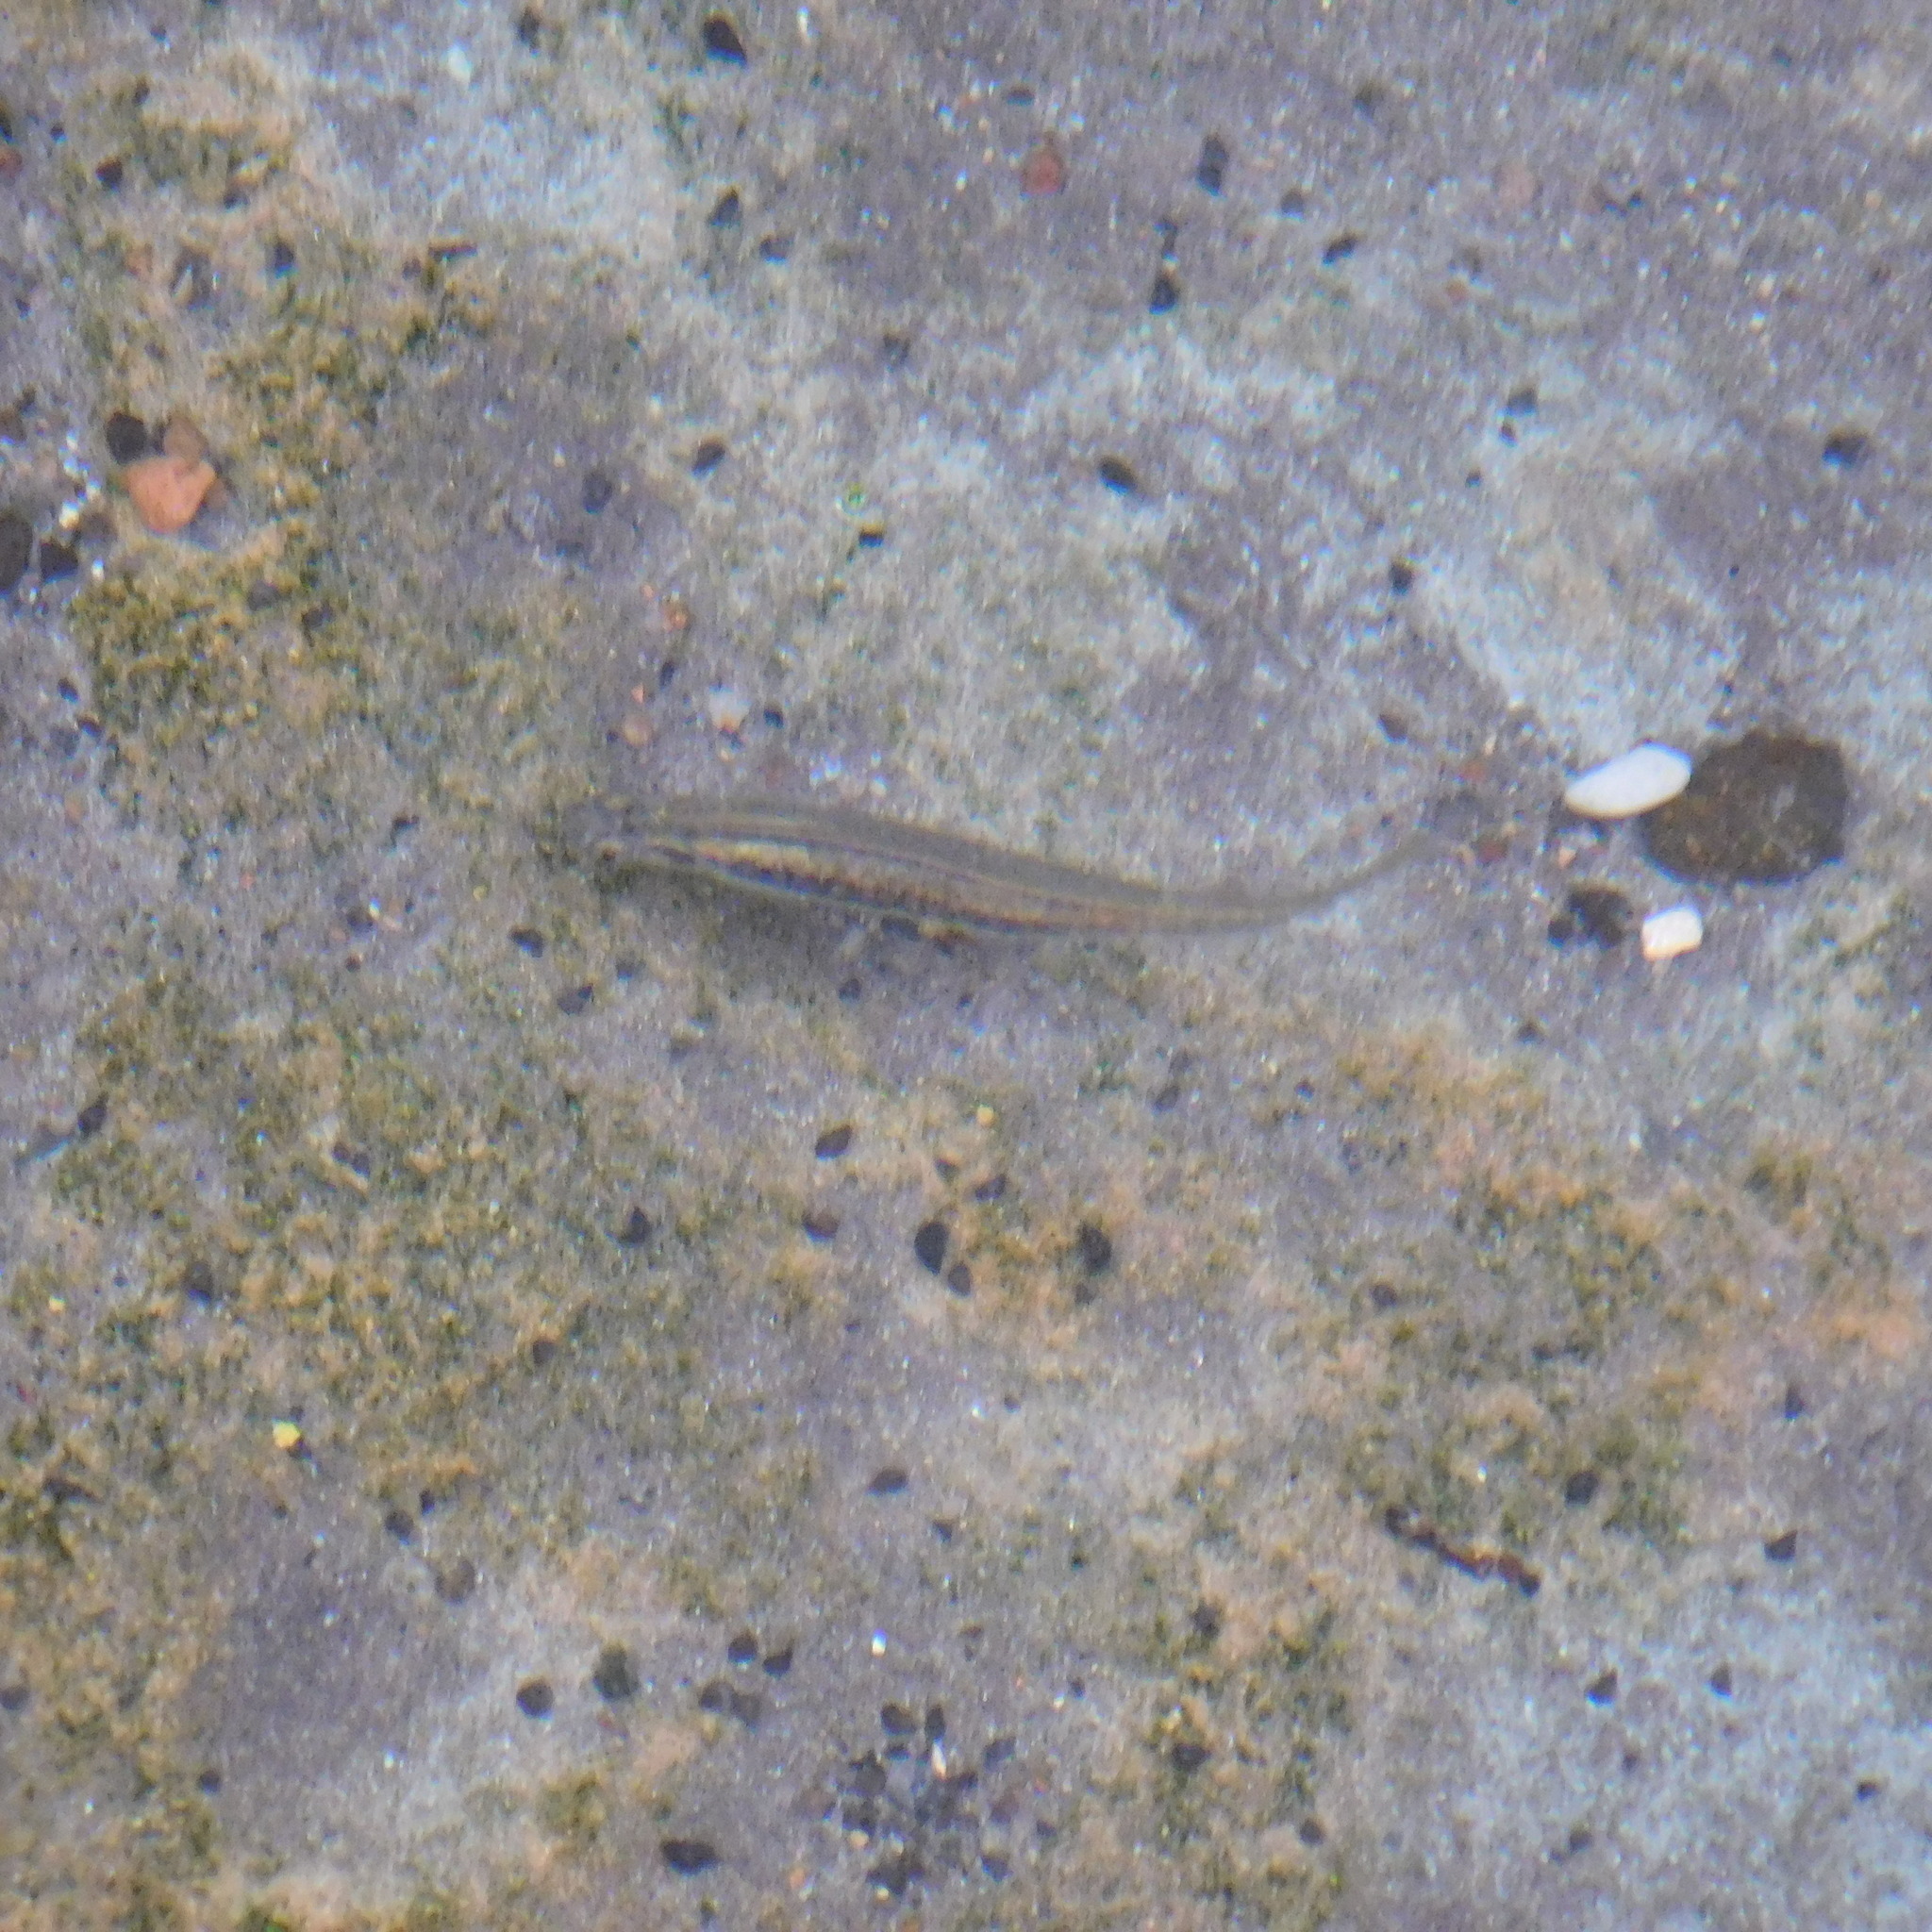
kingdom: Animalia
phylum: Chordata
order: Osmeriformes
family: Galaxiidae
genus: Galaxias
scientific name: Galaxias maculatus
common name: Common galaxias
